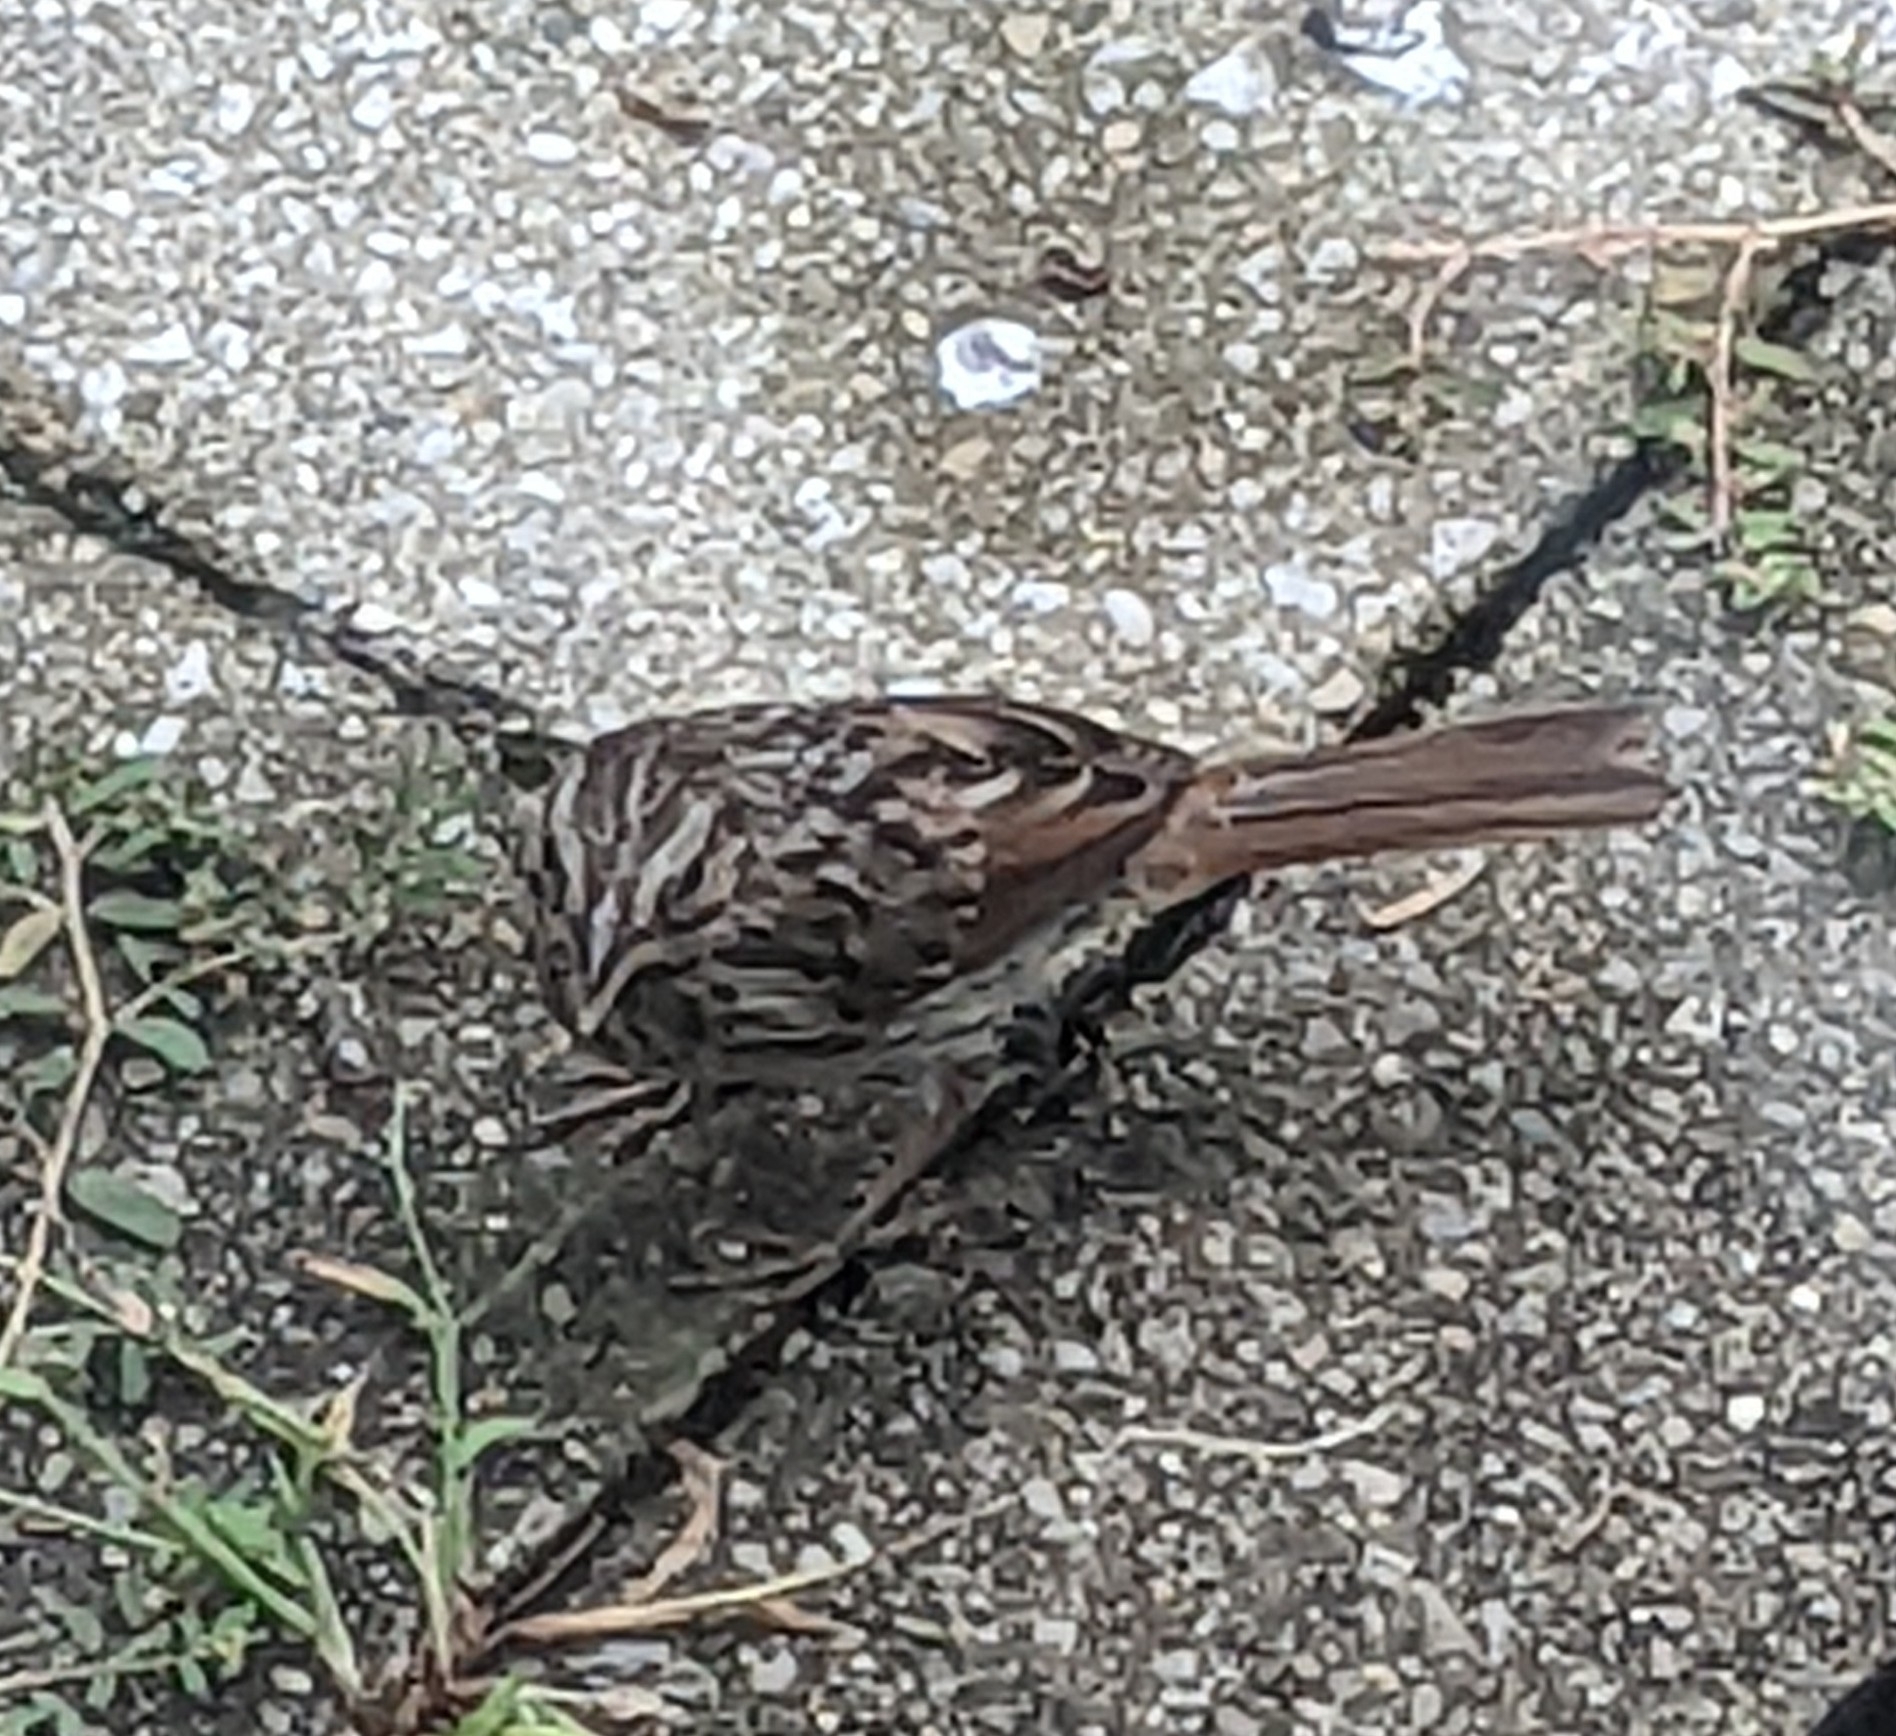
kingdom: Animalia
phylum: Chordata
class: Aves
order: Passeriformes
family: Passerellidae
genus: Melospiza
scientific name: Melospiza melodia
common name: Song sparrow
